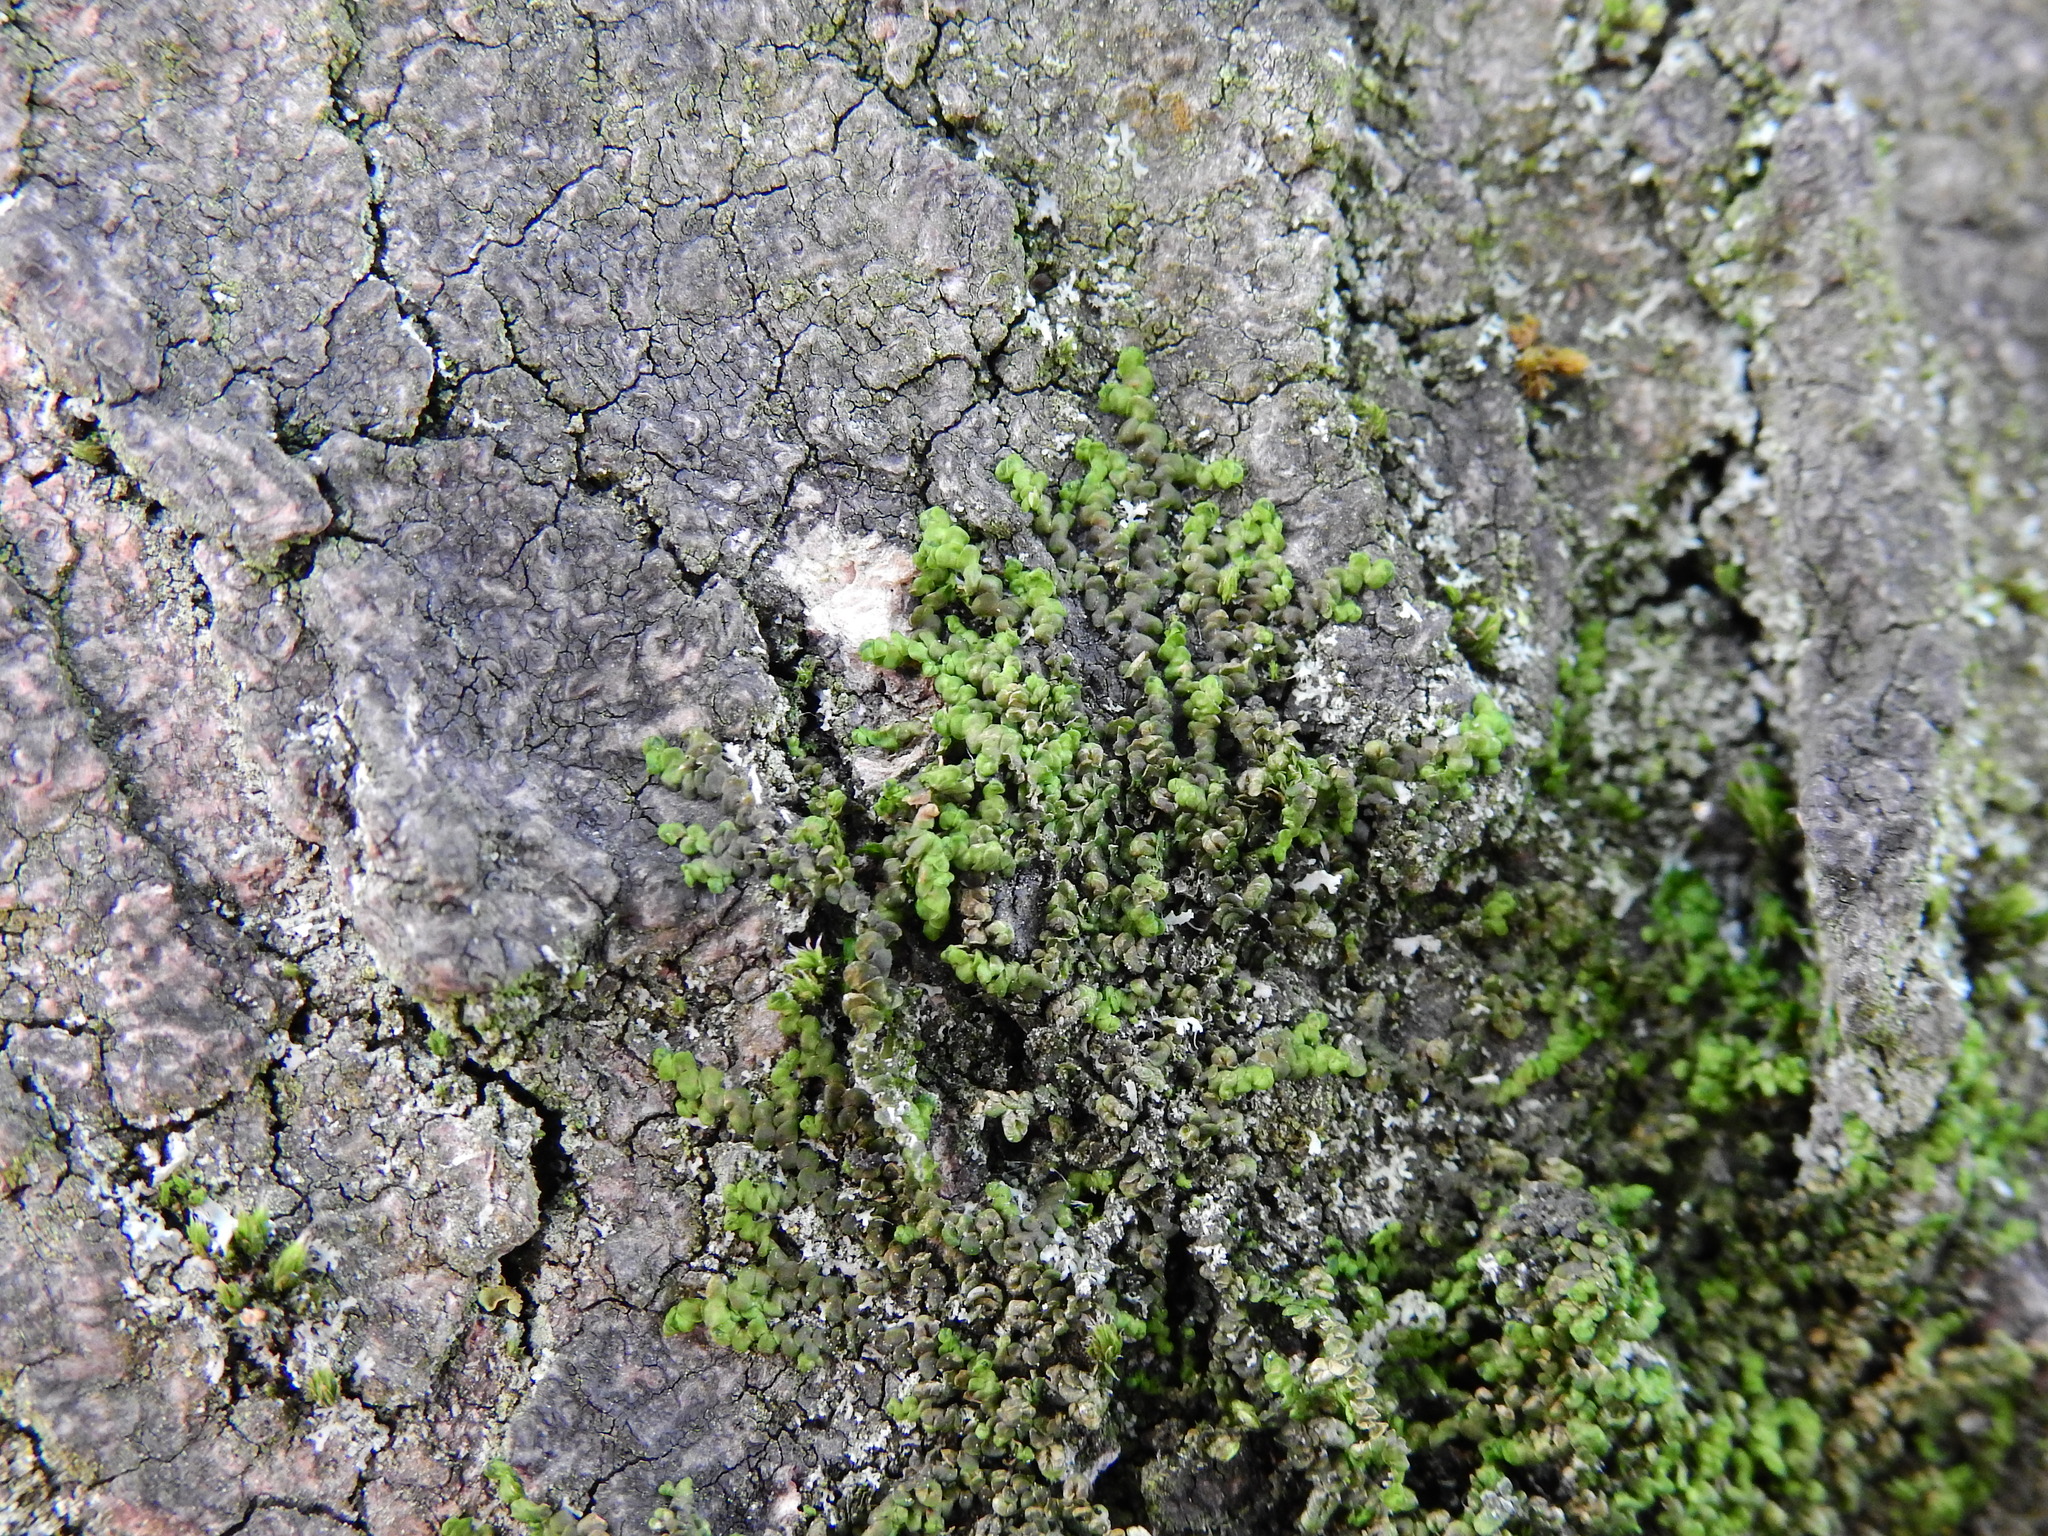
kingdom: Plantae
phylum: Marchantiophyta
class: Jungermanniopsida
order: Porellales
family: Frullaniaceae
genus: Frullania
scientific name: Frullania dilatata
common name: Dilated scalewort
